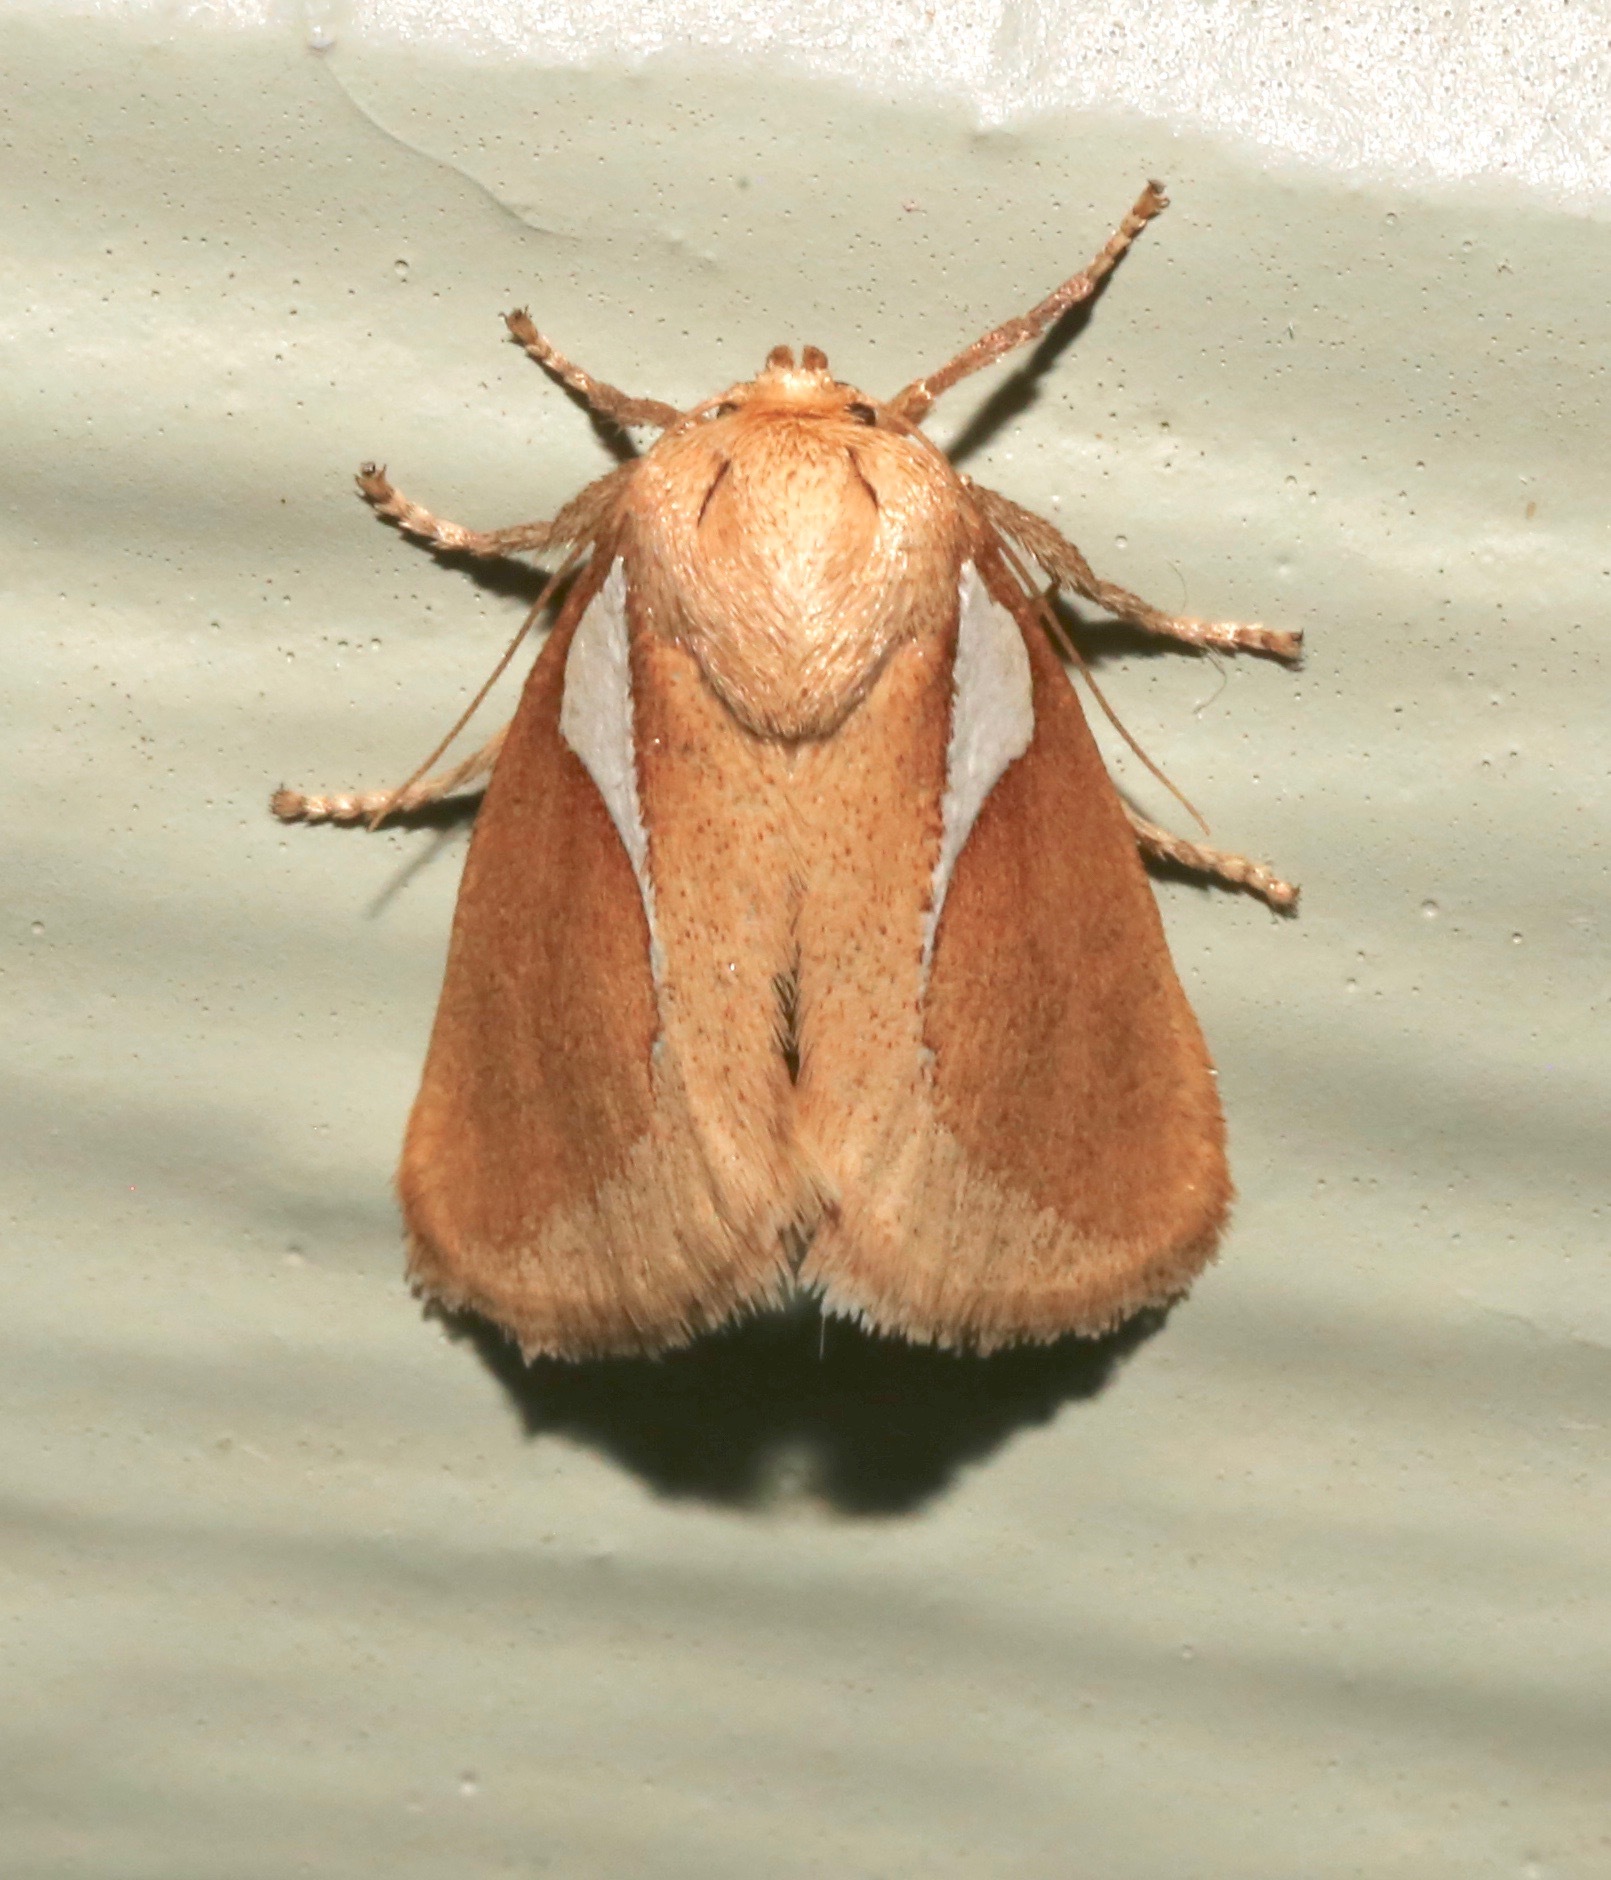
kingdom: Animalia
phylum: Arthropoda
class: Insecta
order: Lepidoptera
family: Limacodidae
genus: Prolimacodes
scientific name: Prolimacodes trigona
